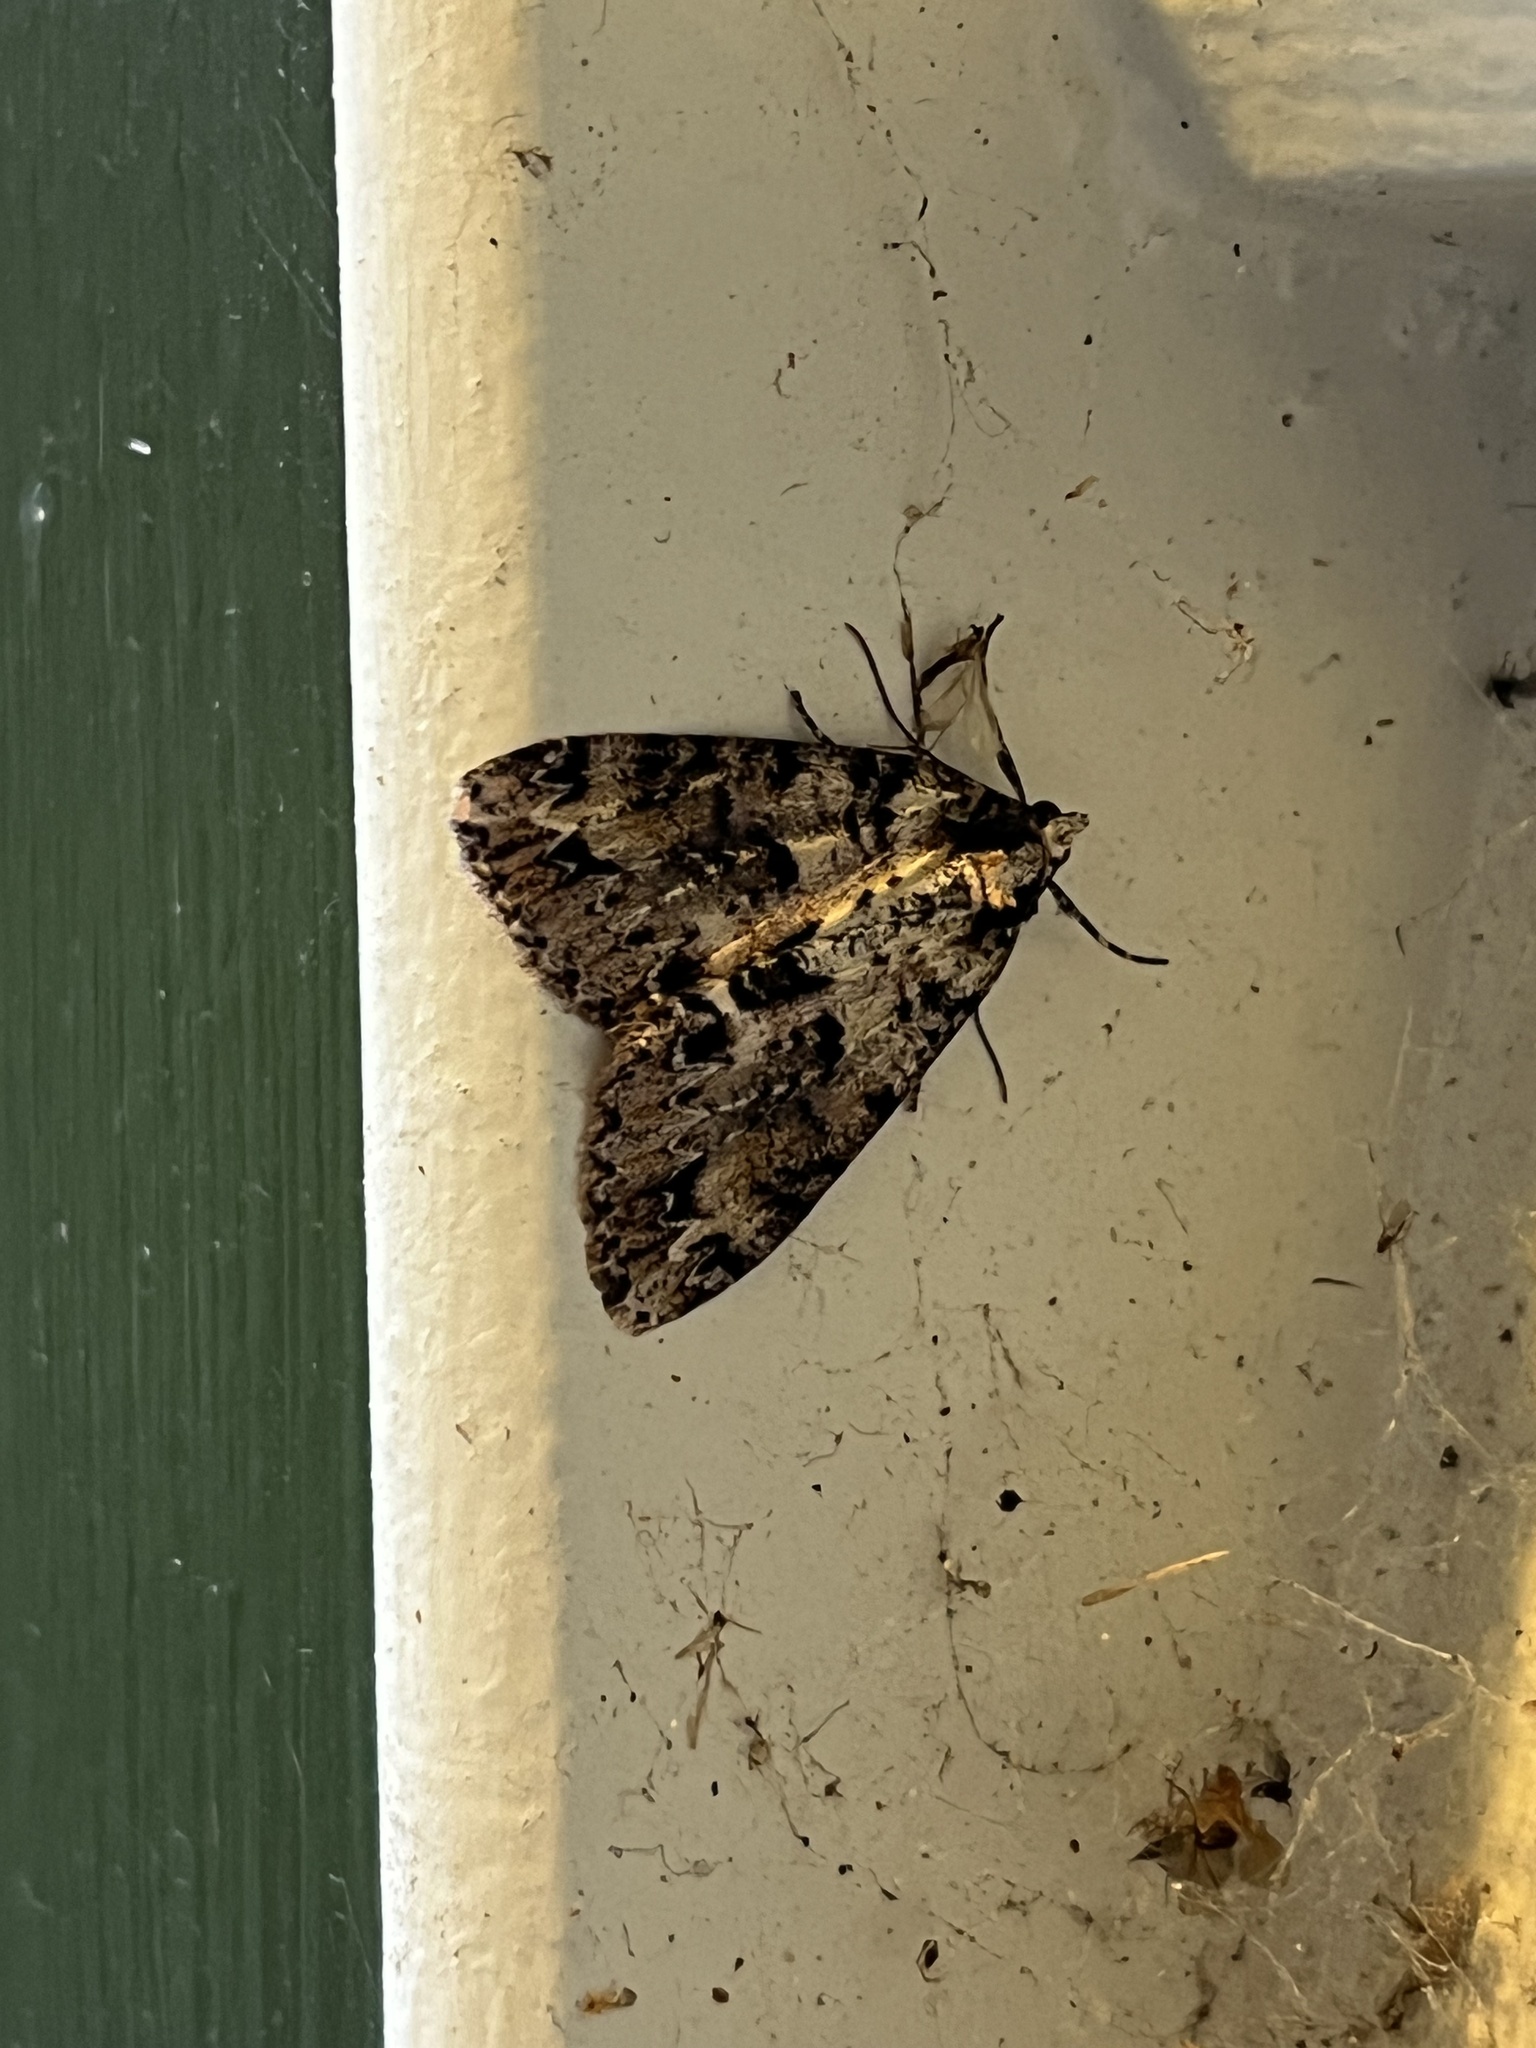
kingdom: Animalia
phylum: Arthropoda
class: Insecta
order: Lepidoptera
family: Geometridae
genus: Pseudocoremia
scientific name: Pseudocoremia suavis
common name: Common forest looper
